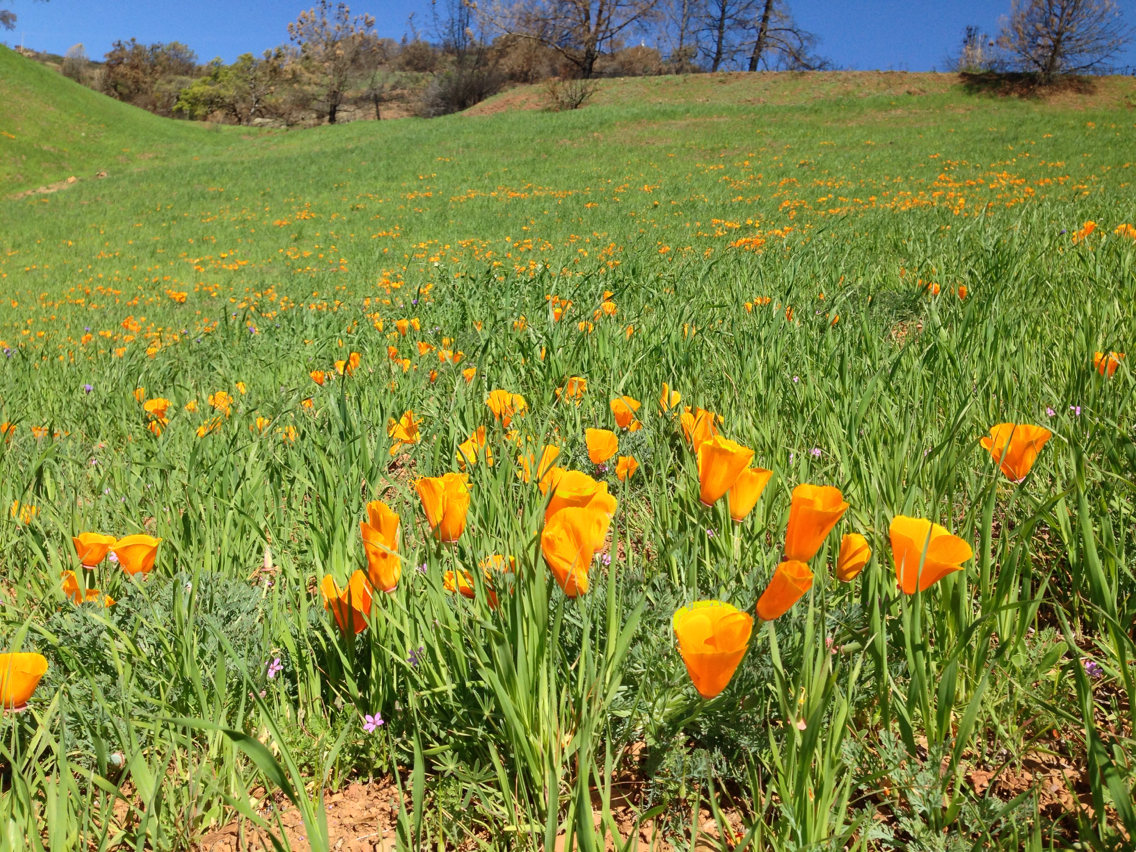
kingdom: Plantae
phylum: Tracheophyta
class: Magnoliopsida
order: Ranunculales
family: Papaveraceae
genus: Eschscholzia
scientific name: Eschscholzia californica
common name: California poppy
